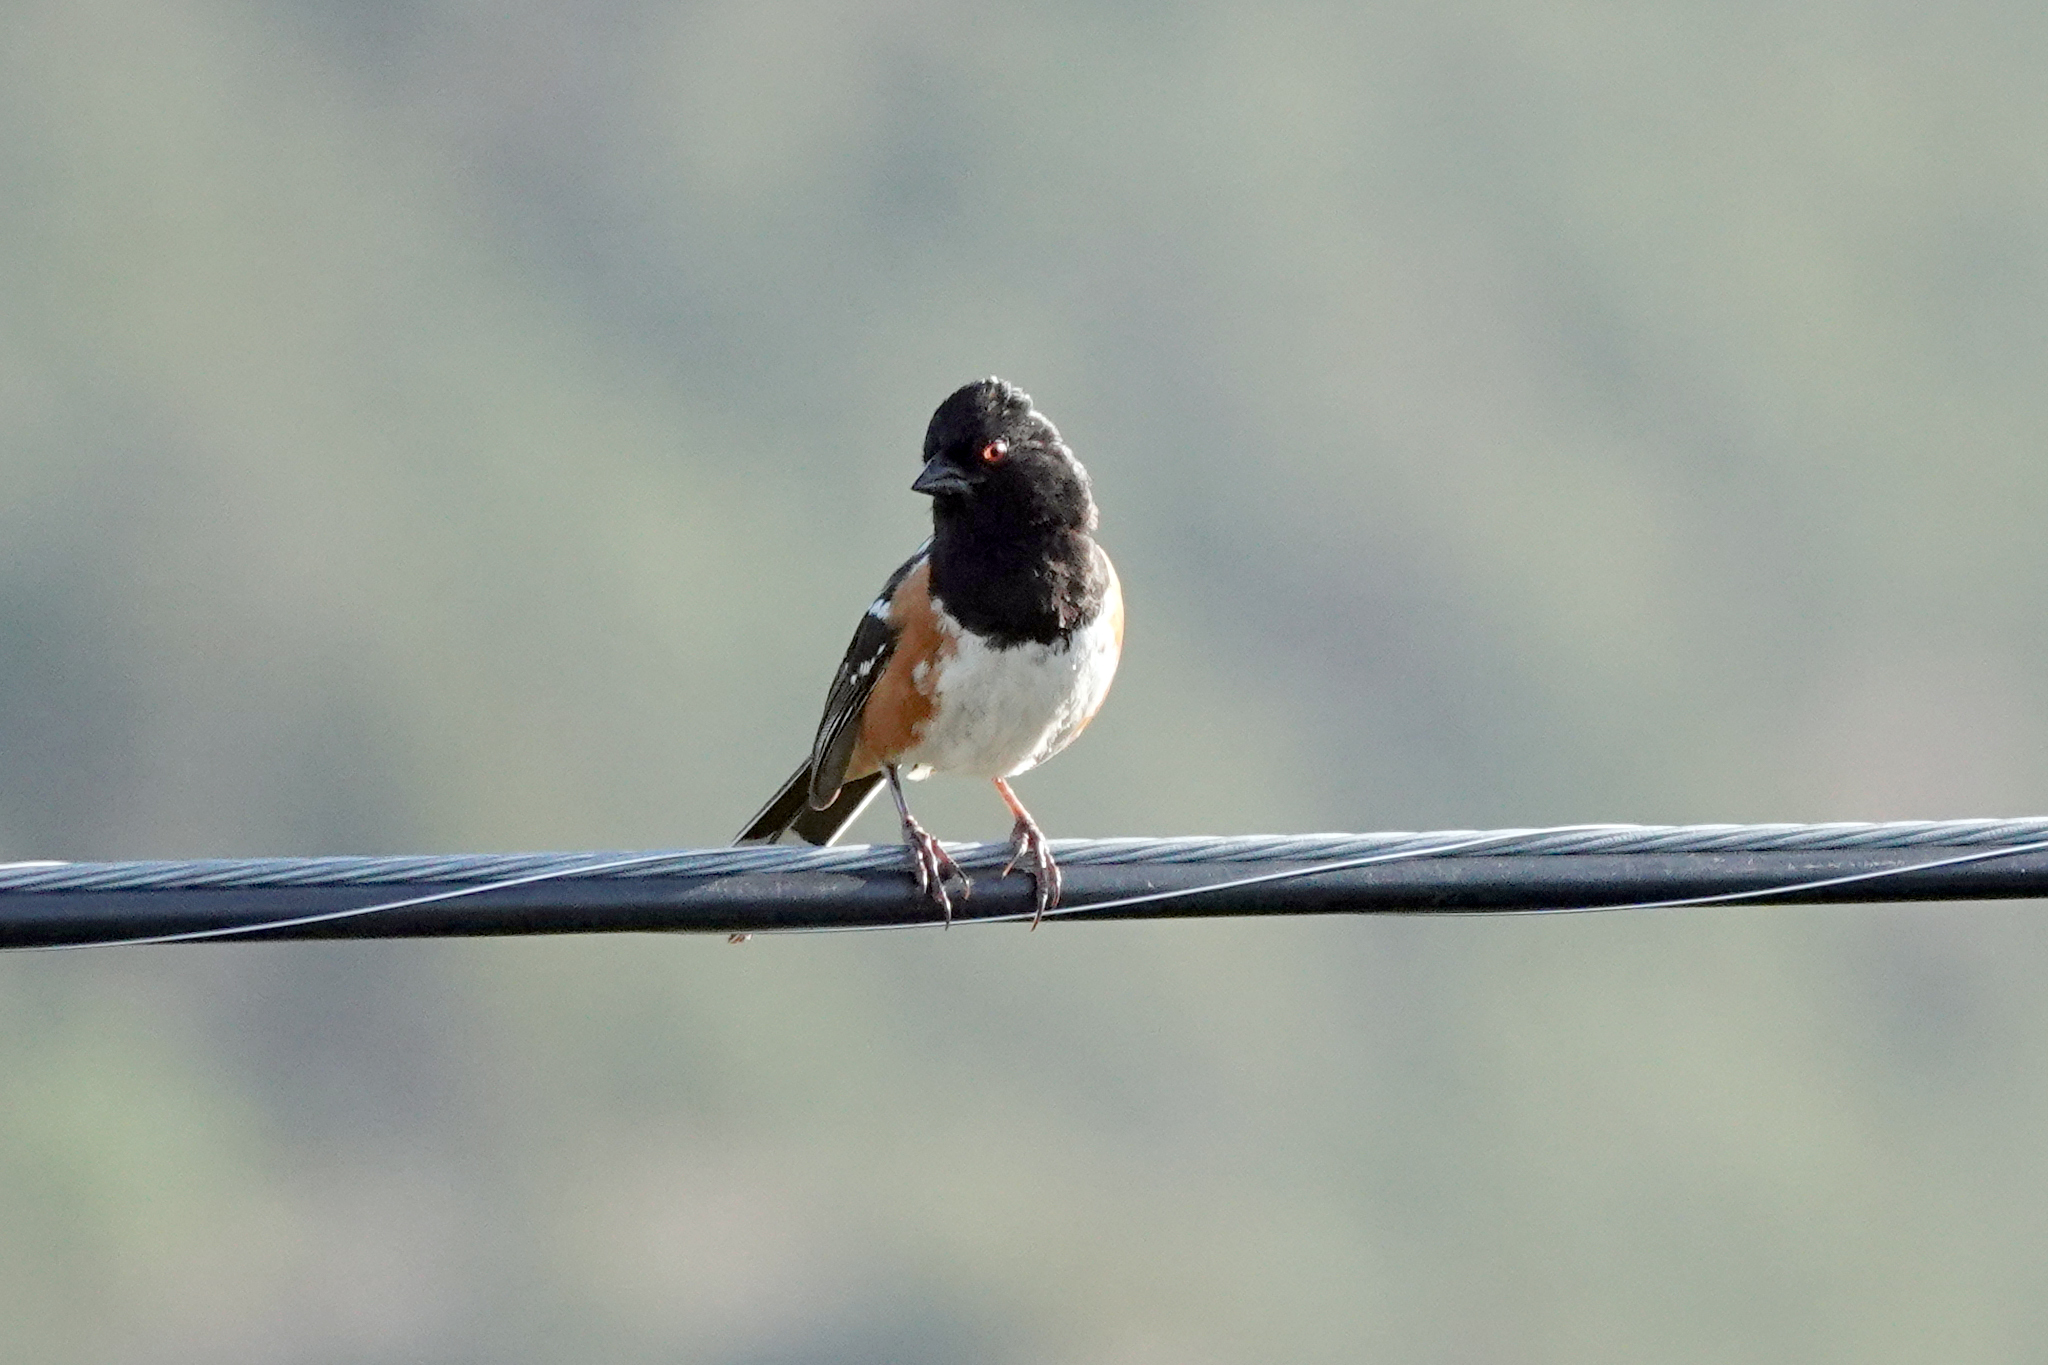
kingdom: Animalia
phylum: Chordata
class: Aves
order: Passeriformes
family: Passerellidae
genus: Pipilo
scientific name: Pipilo maculatus
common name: Spotted towhee
